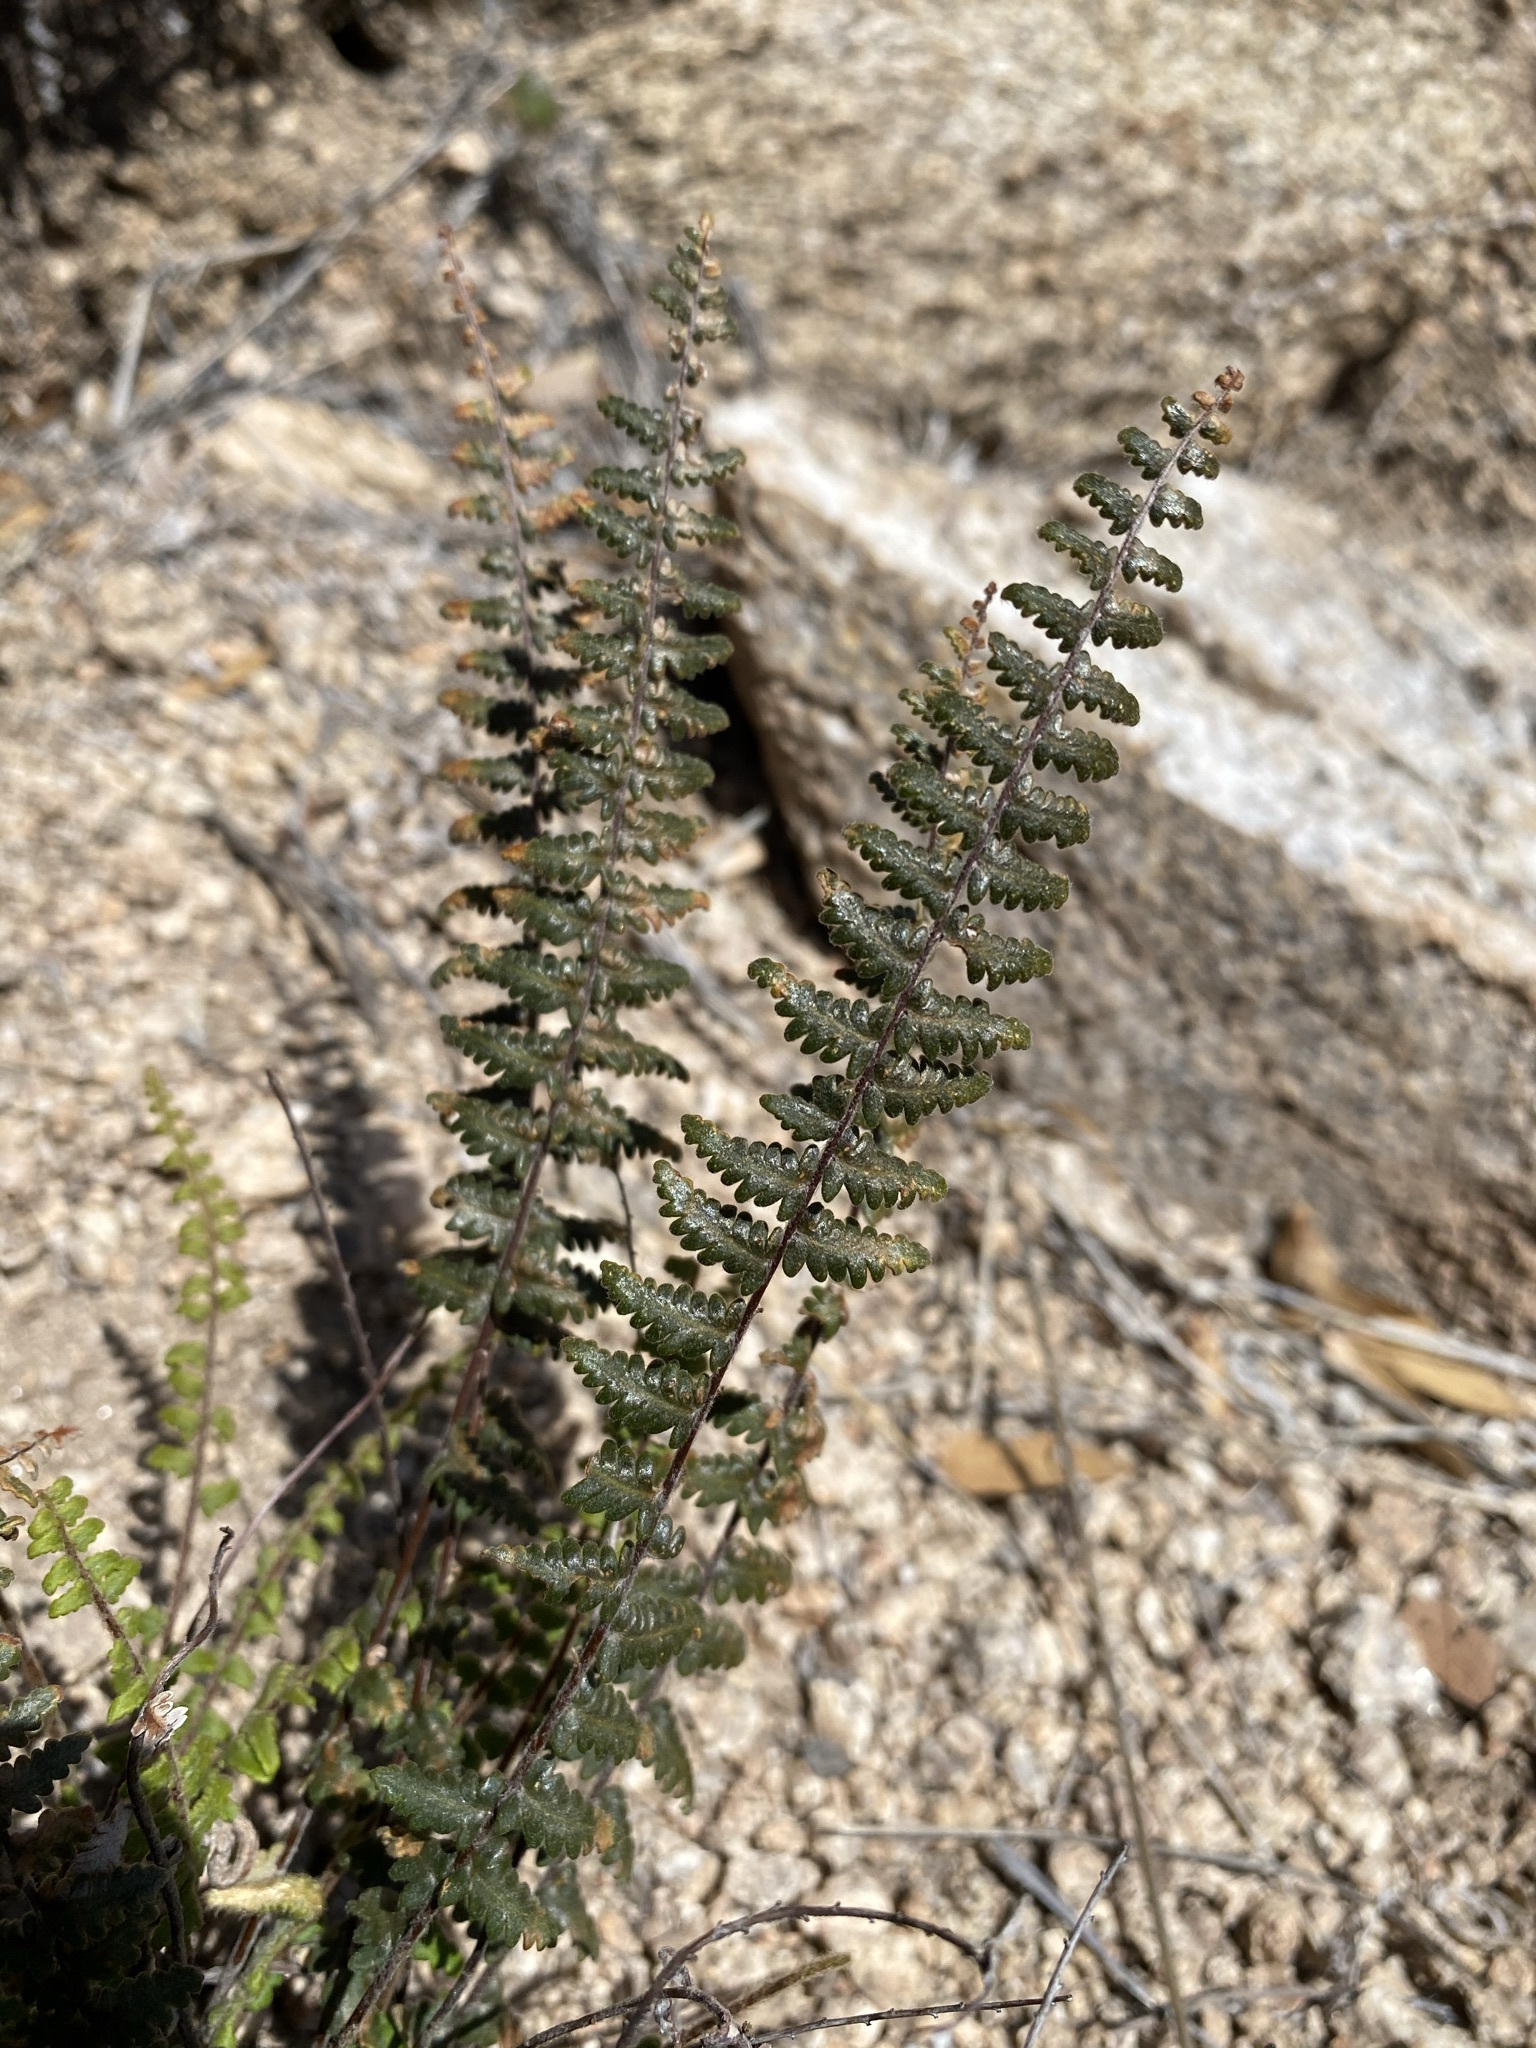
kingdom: Plantae
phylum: Tracheophyta
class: Polypodiopsida
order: Polypodiales
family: Pteridaceae
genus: Myriopteris
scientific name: Myriopteris aurea
